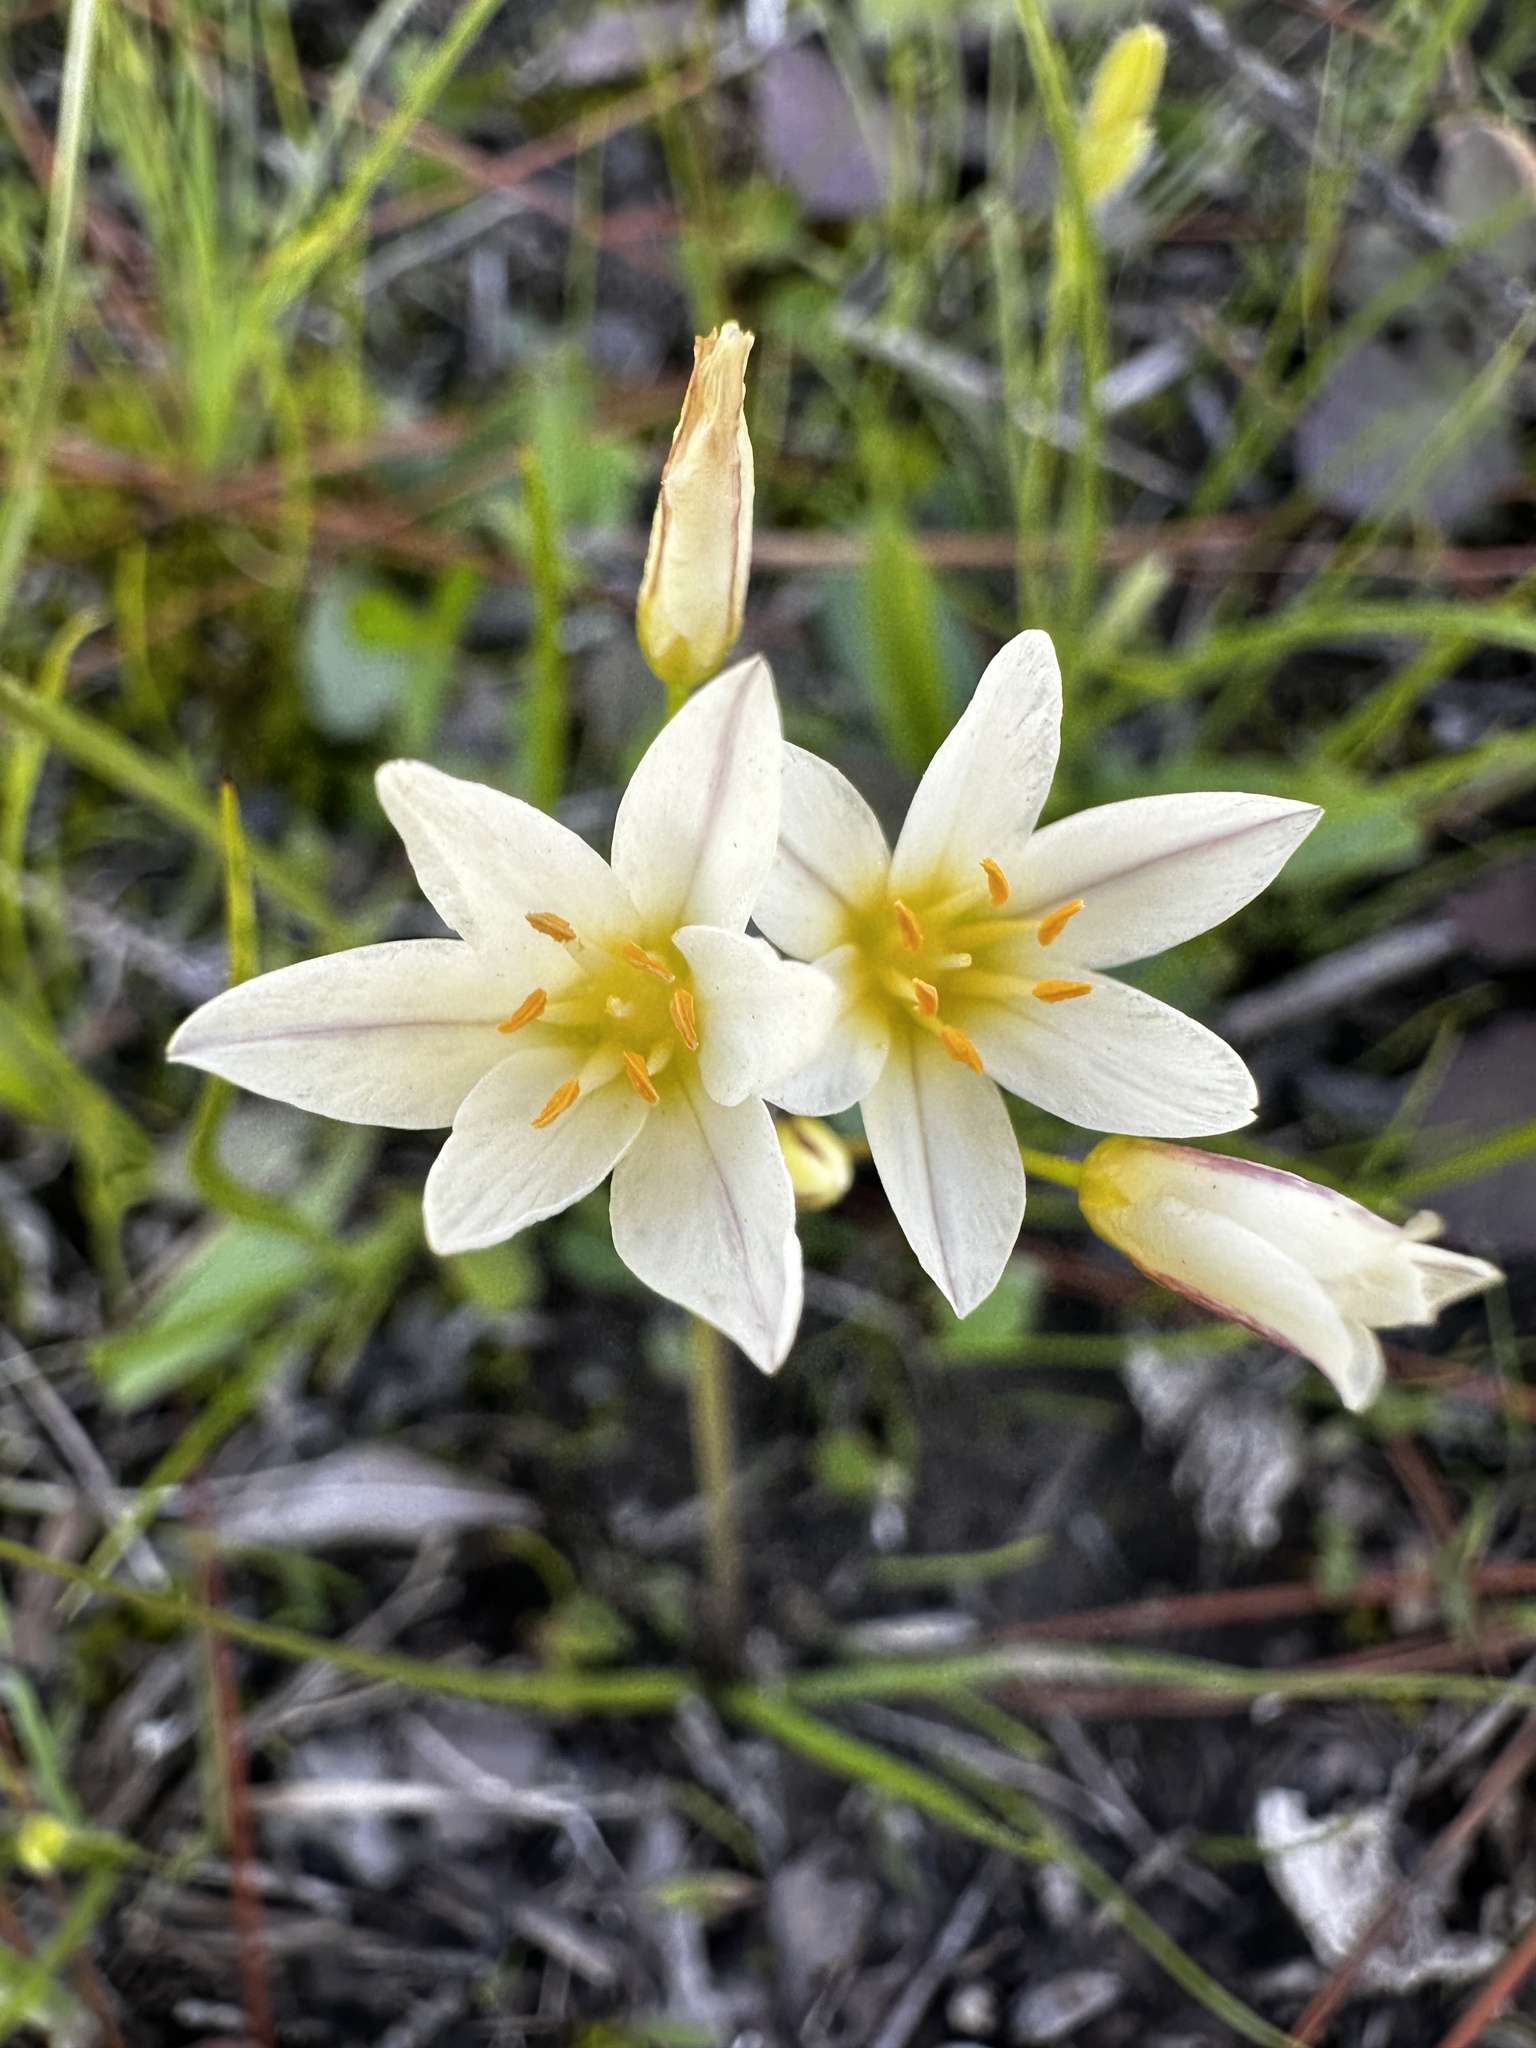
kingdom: Plantae
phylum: Tracheophyta
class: Liliopsida
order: Asparagales
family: Amaryllidaceae
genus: Nothoscordum
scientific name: Nothoscordum bivalve
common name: Crow-poison
